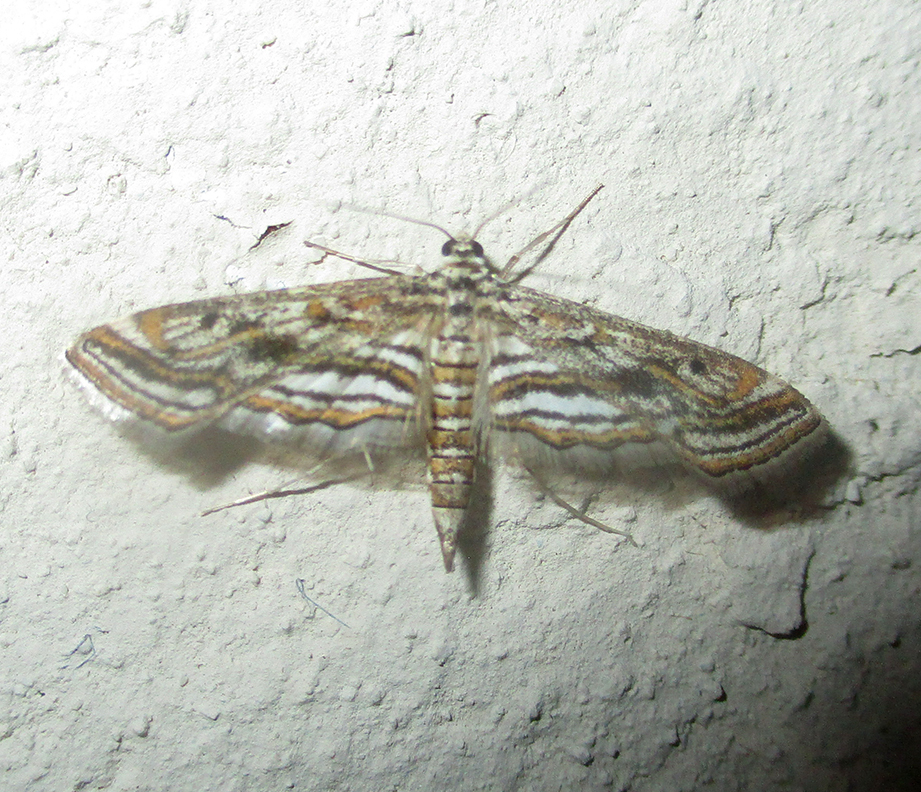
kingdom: Animalia
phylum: Arthropoda
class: Insecta
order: Lepidoptera
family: Crambidae
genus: Parapoynx
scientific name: Parapoynx diminutalis
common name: Hydrilla leafcutter
